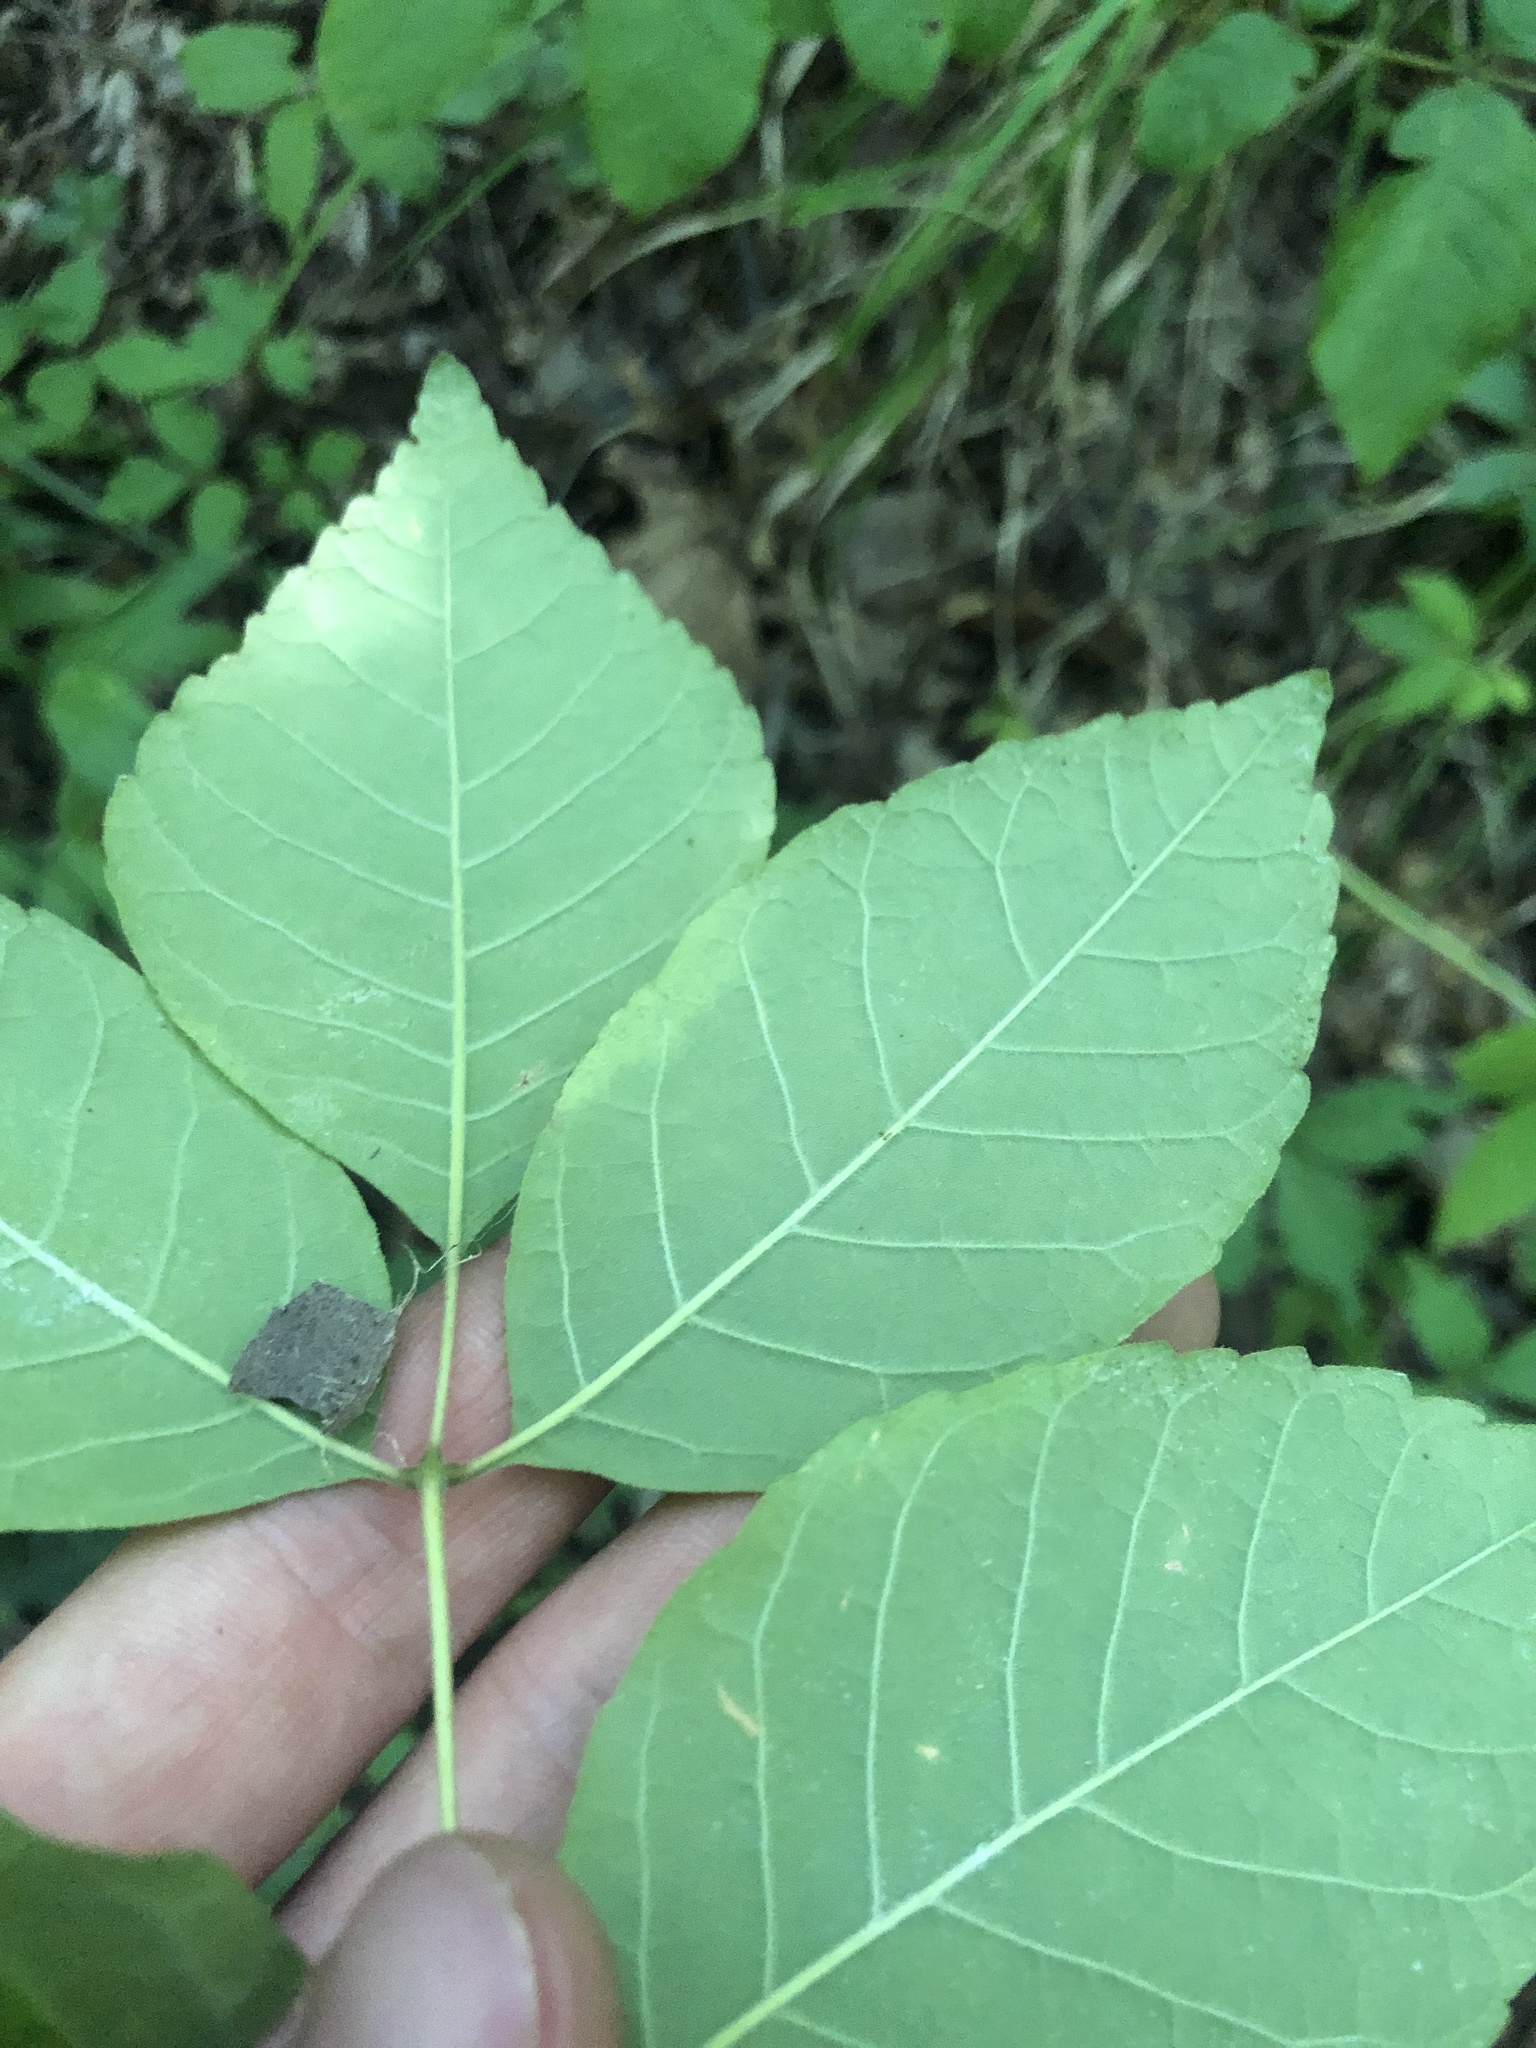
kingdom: Plantae
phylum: Tracheophyta
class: Magnoliopsida
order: Lamiales
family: Oleaceae
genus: Fraxinus
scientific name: Fraxinus americana
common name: White ash
